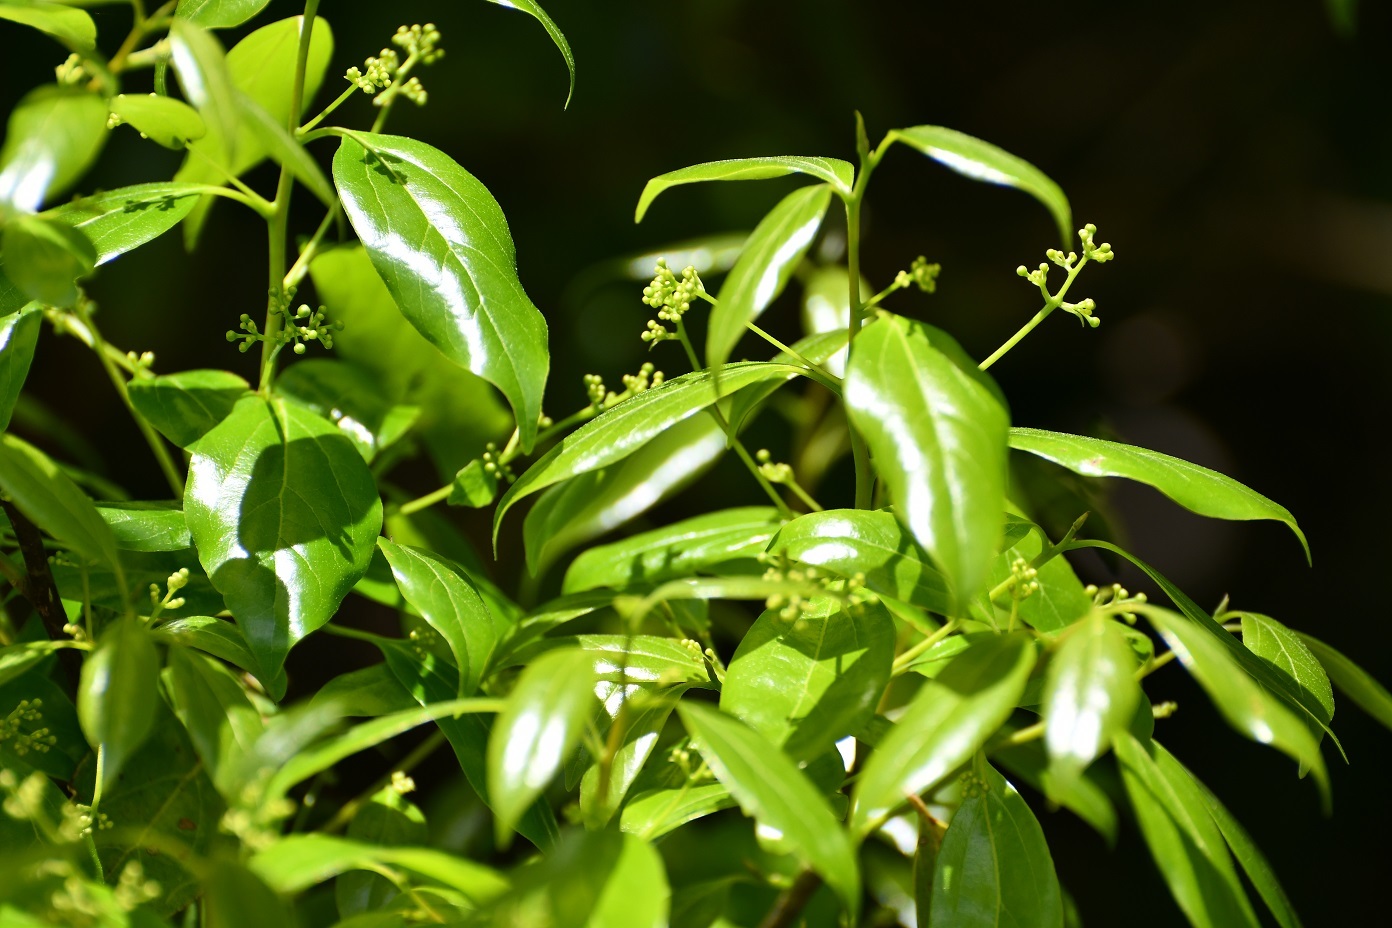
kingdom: Plantae
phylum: Tracheophyta
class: Magnoliopsida
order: Laurales
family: Lauraceae
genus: Ocotea
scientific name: Ocotea heydeana
